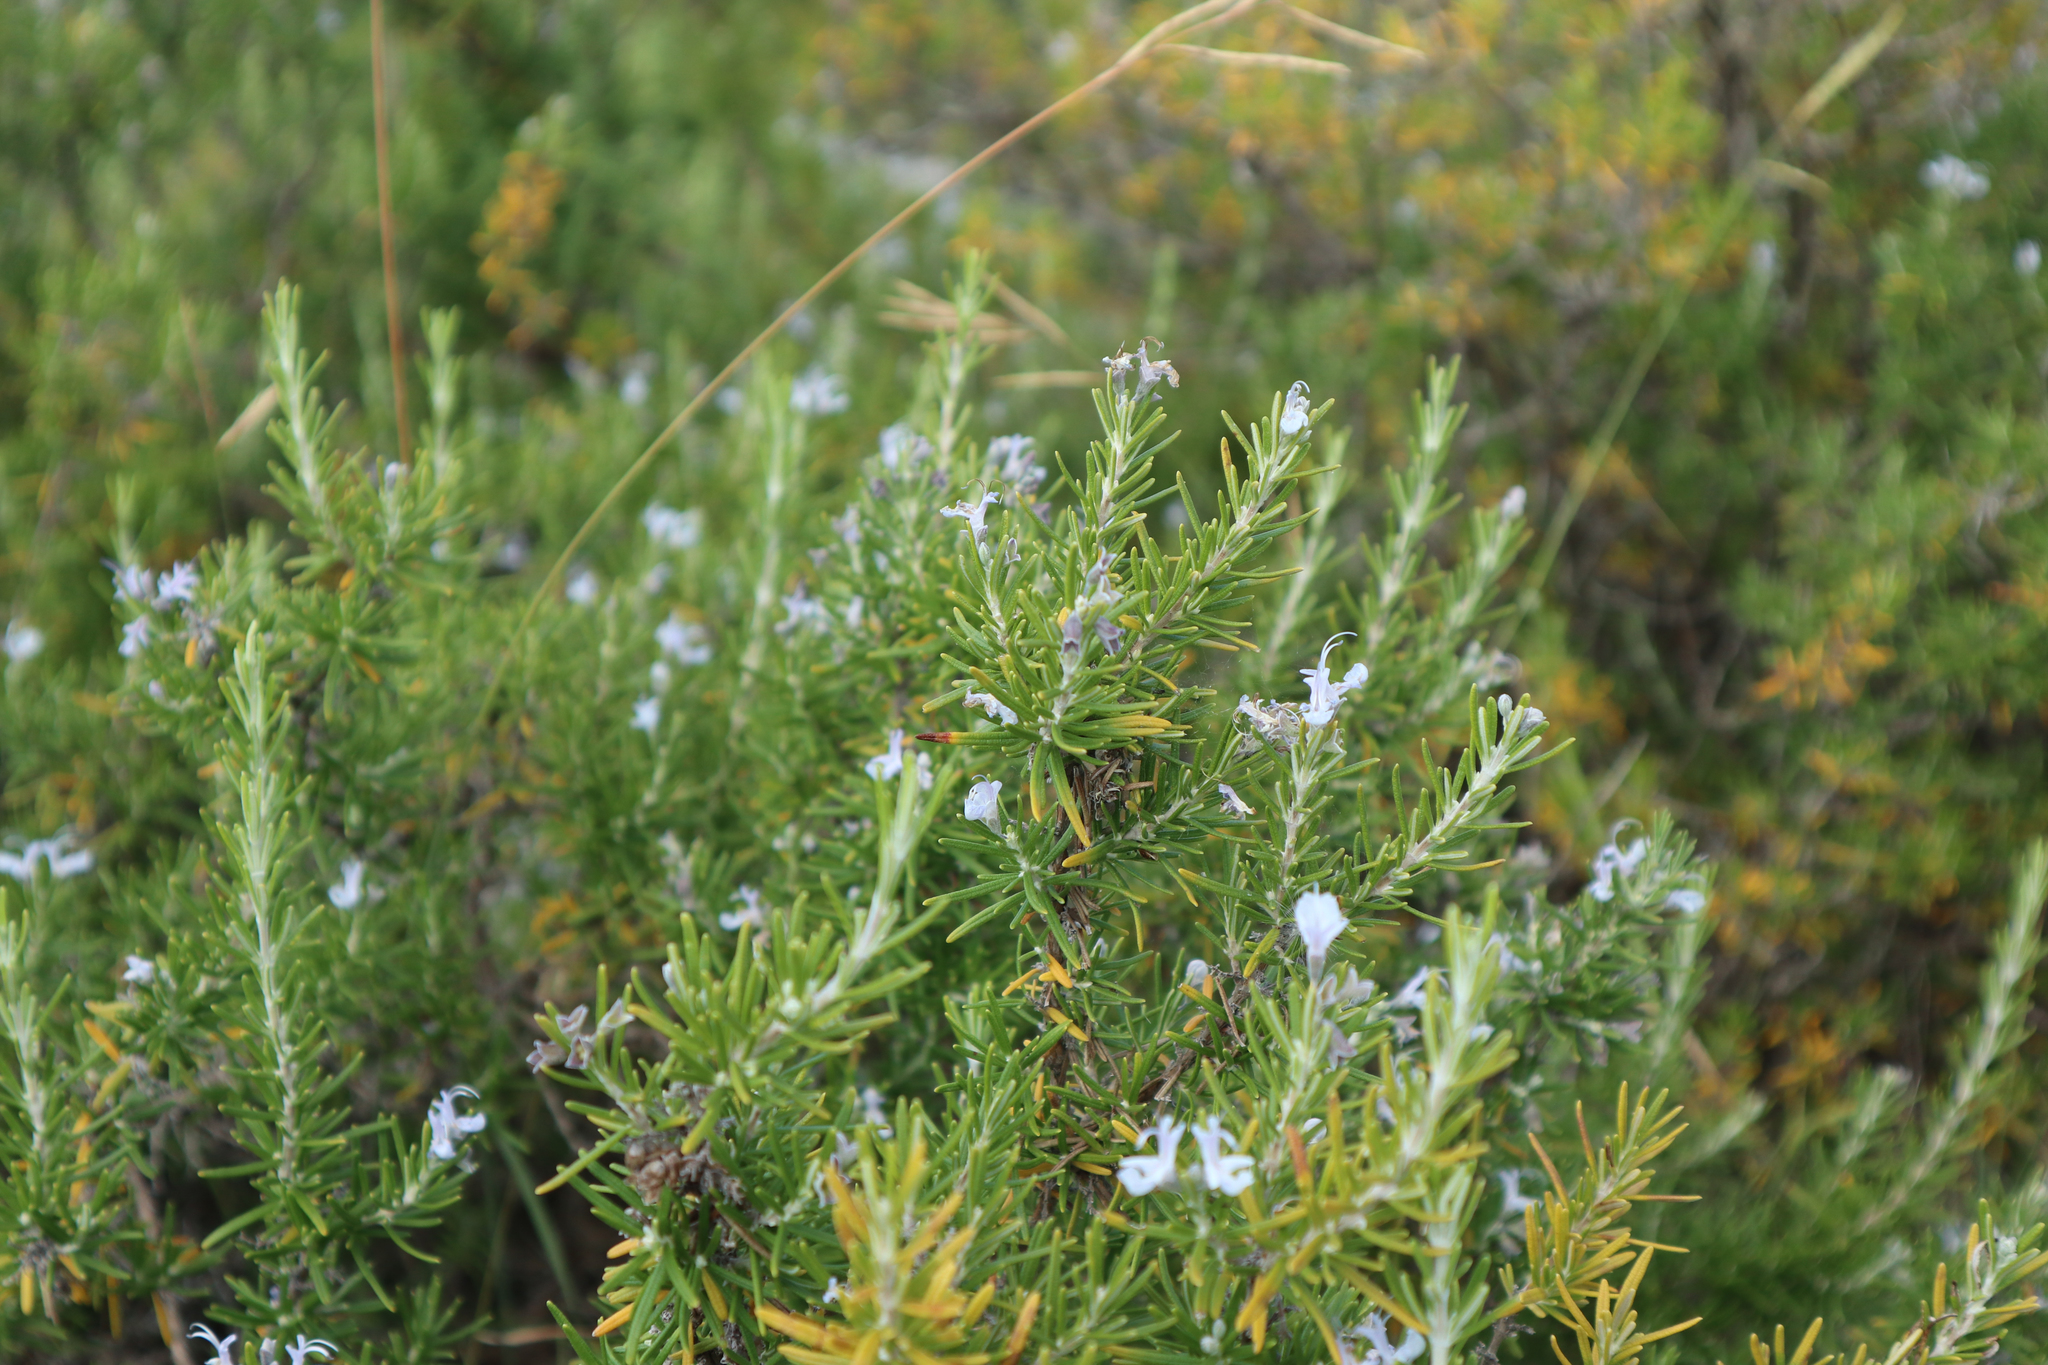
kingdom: Plantae
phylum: Tracheophyta
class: Magnoliopsida
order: Lamiales
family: Lamiaceae
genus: Salvia
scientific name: Salvia rosmarinus
